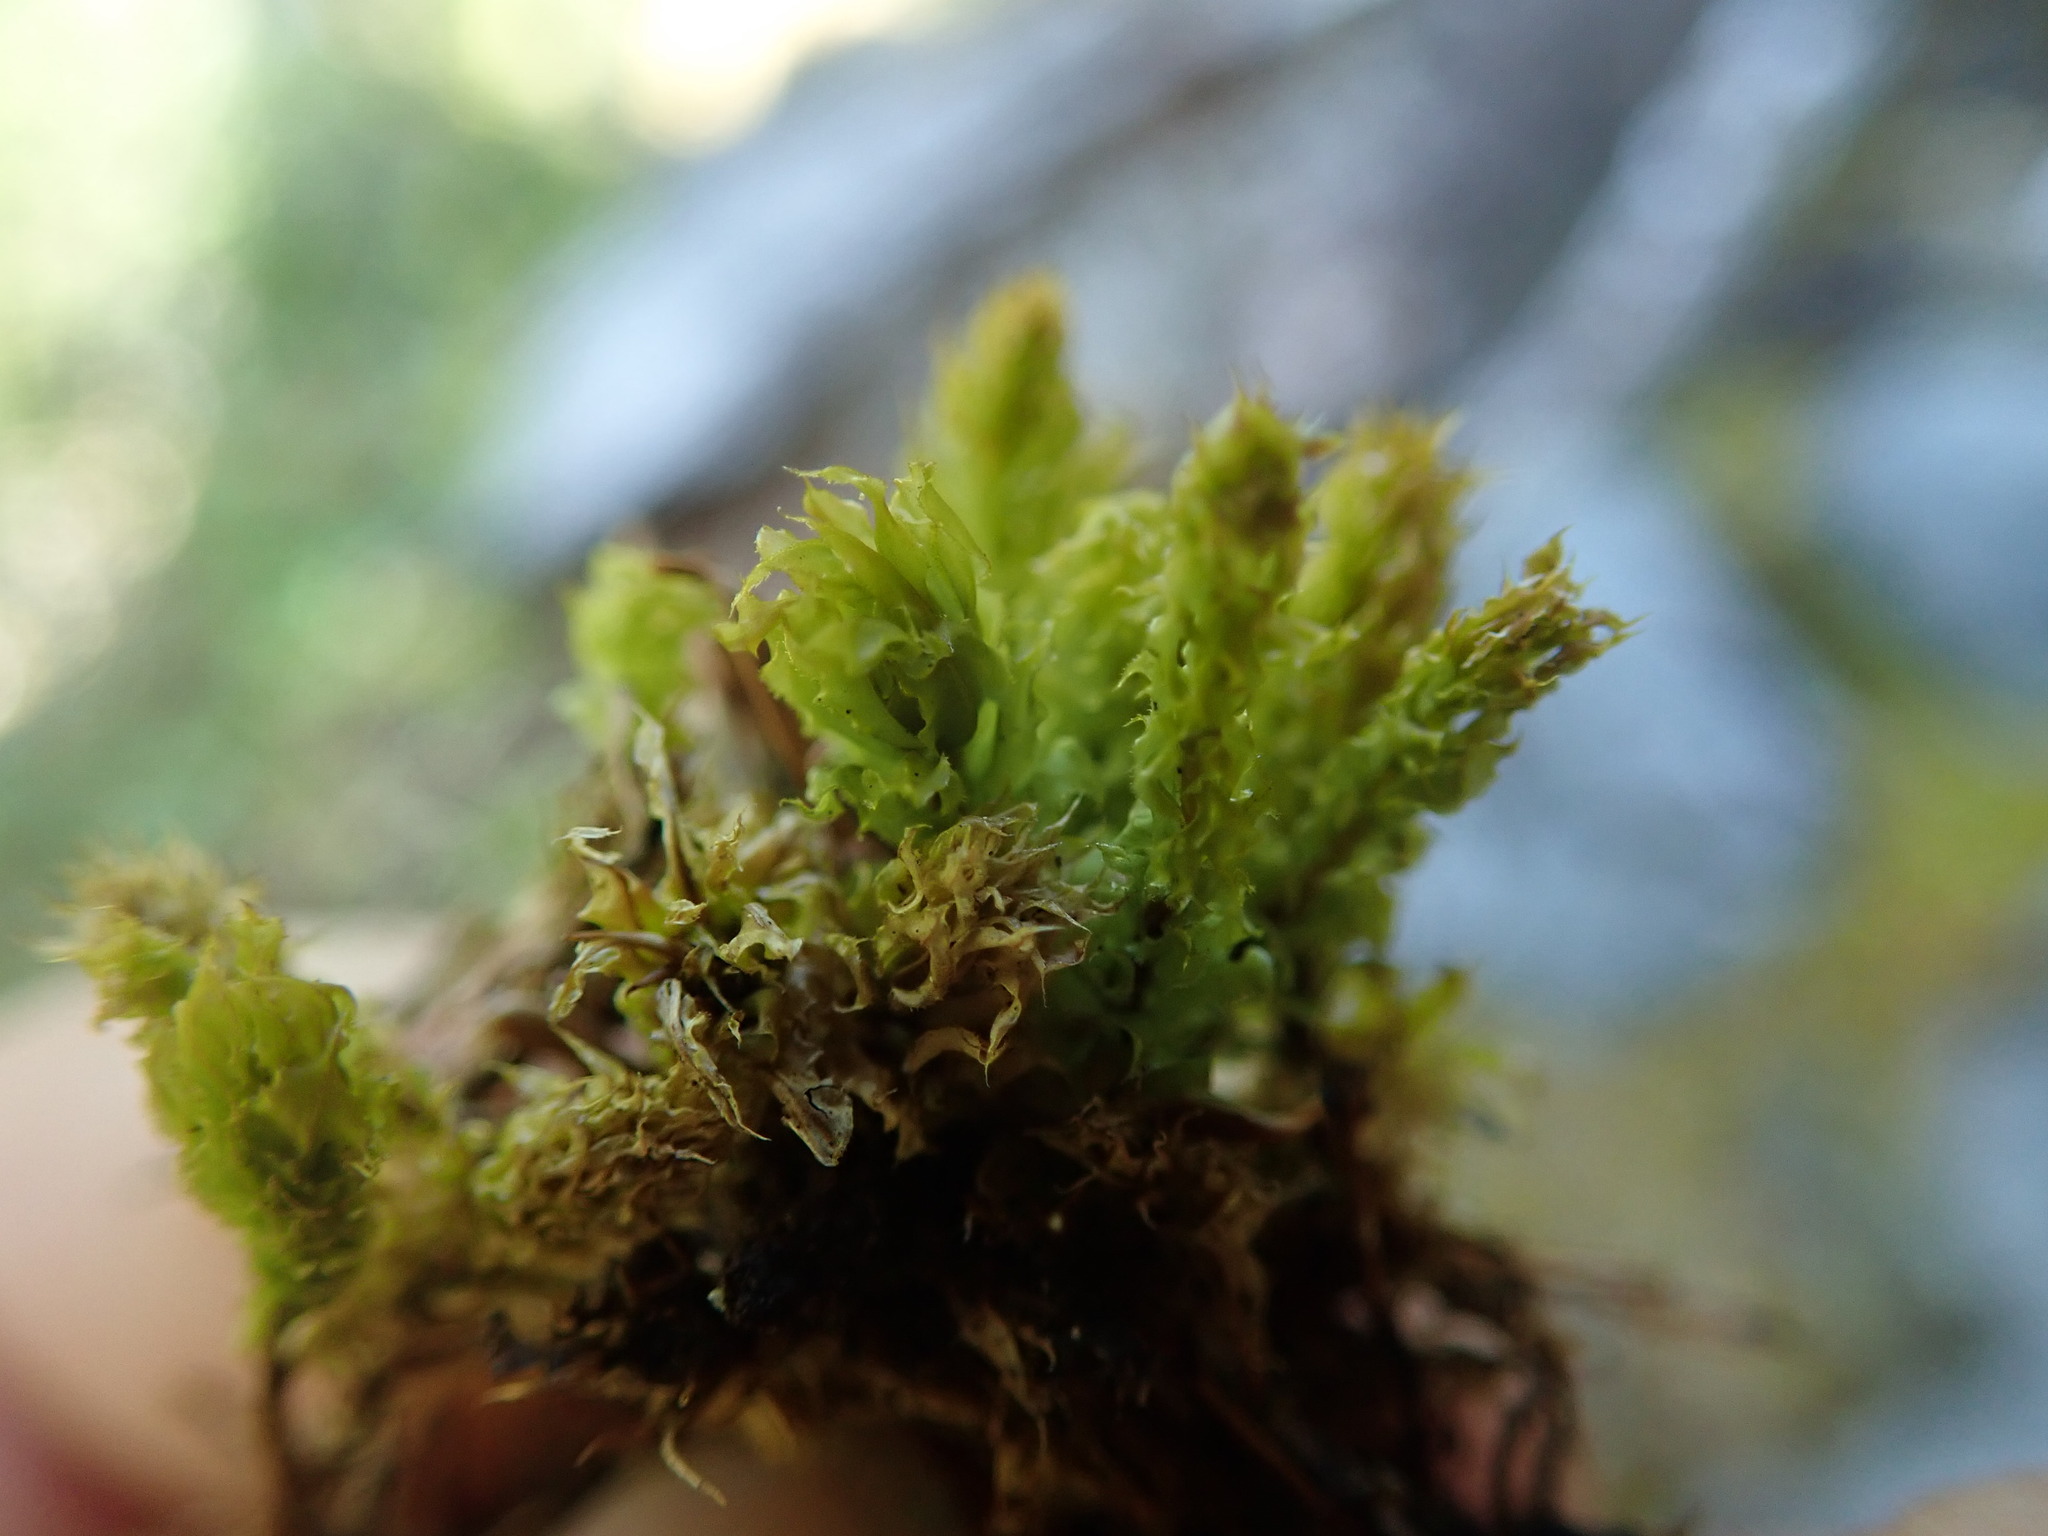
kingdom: Plantae
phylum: Bryophyta
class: Bryopsida
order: Bryales
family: Mniaceae
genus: Plagiomnium
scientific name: Plagiomnium venustum
